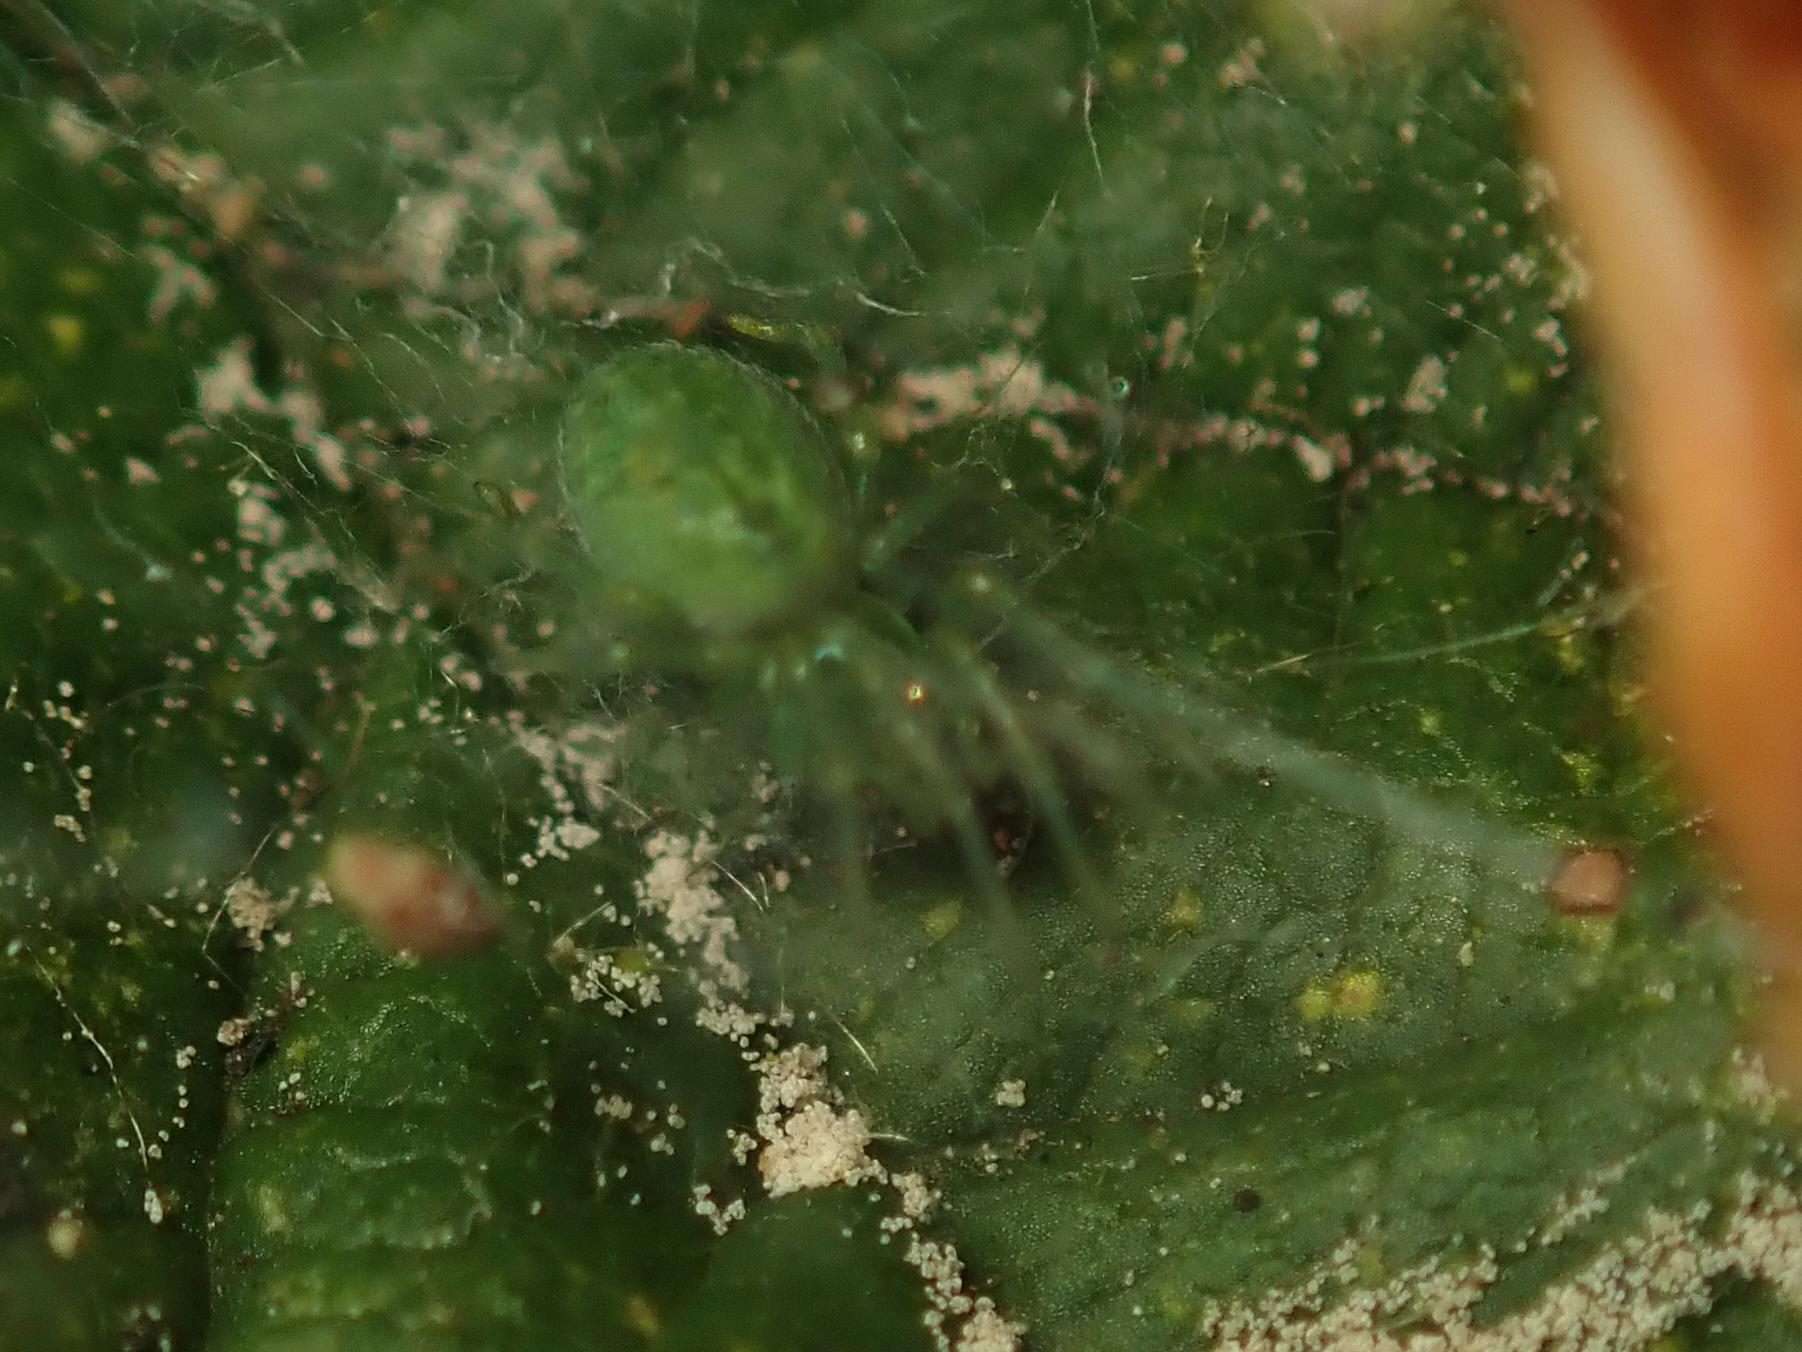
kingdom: Animalia
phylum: Arthropoda
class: Arachnida
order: Araneae
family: Dictynidae
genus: Nigma
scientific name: Nigma walckenaeri
